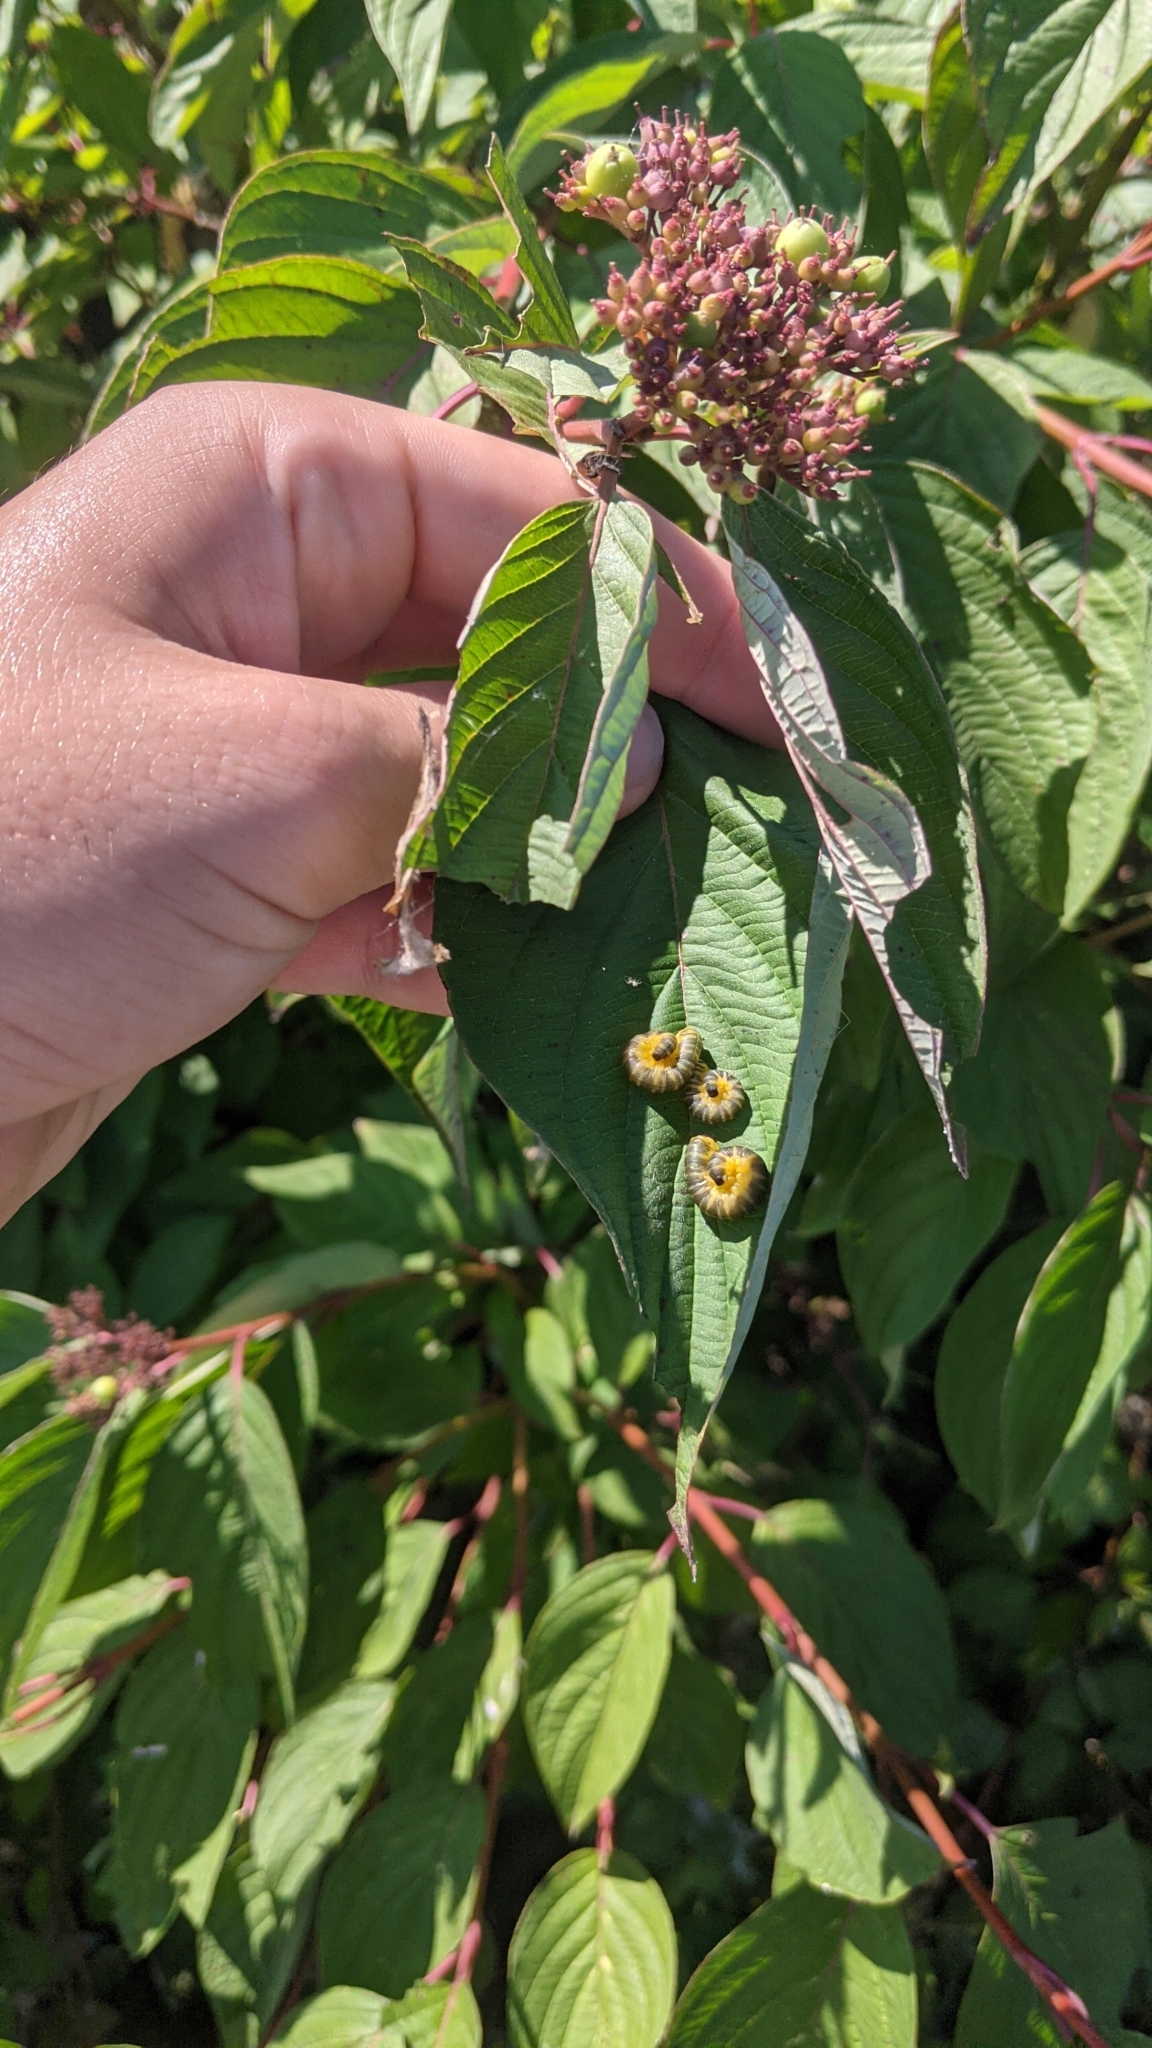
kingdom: Animalia
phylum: Arthropoda
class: Insecta
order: Hymenoptera
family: Tenthredinidae
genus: Macremphytus
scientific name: Macremphytus
